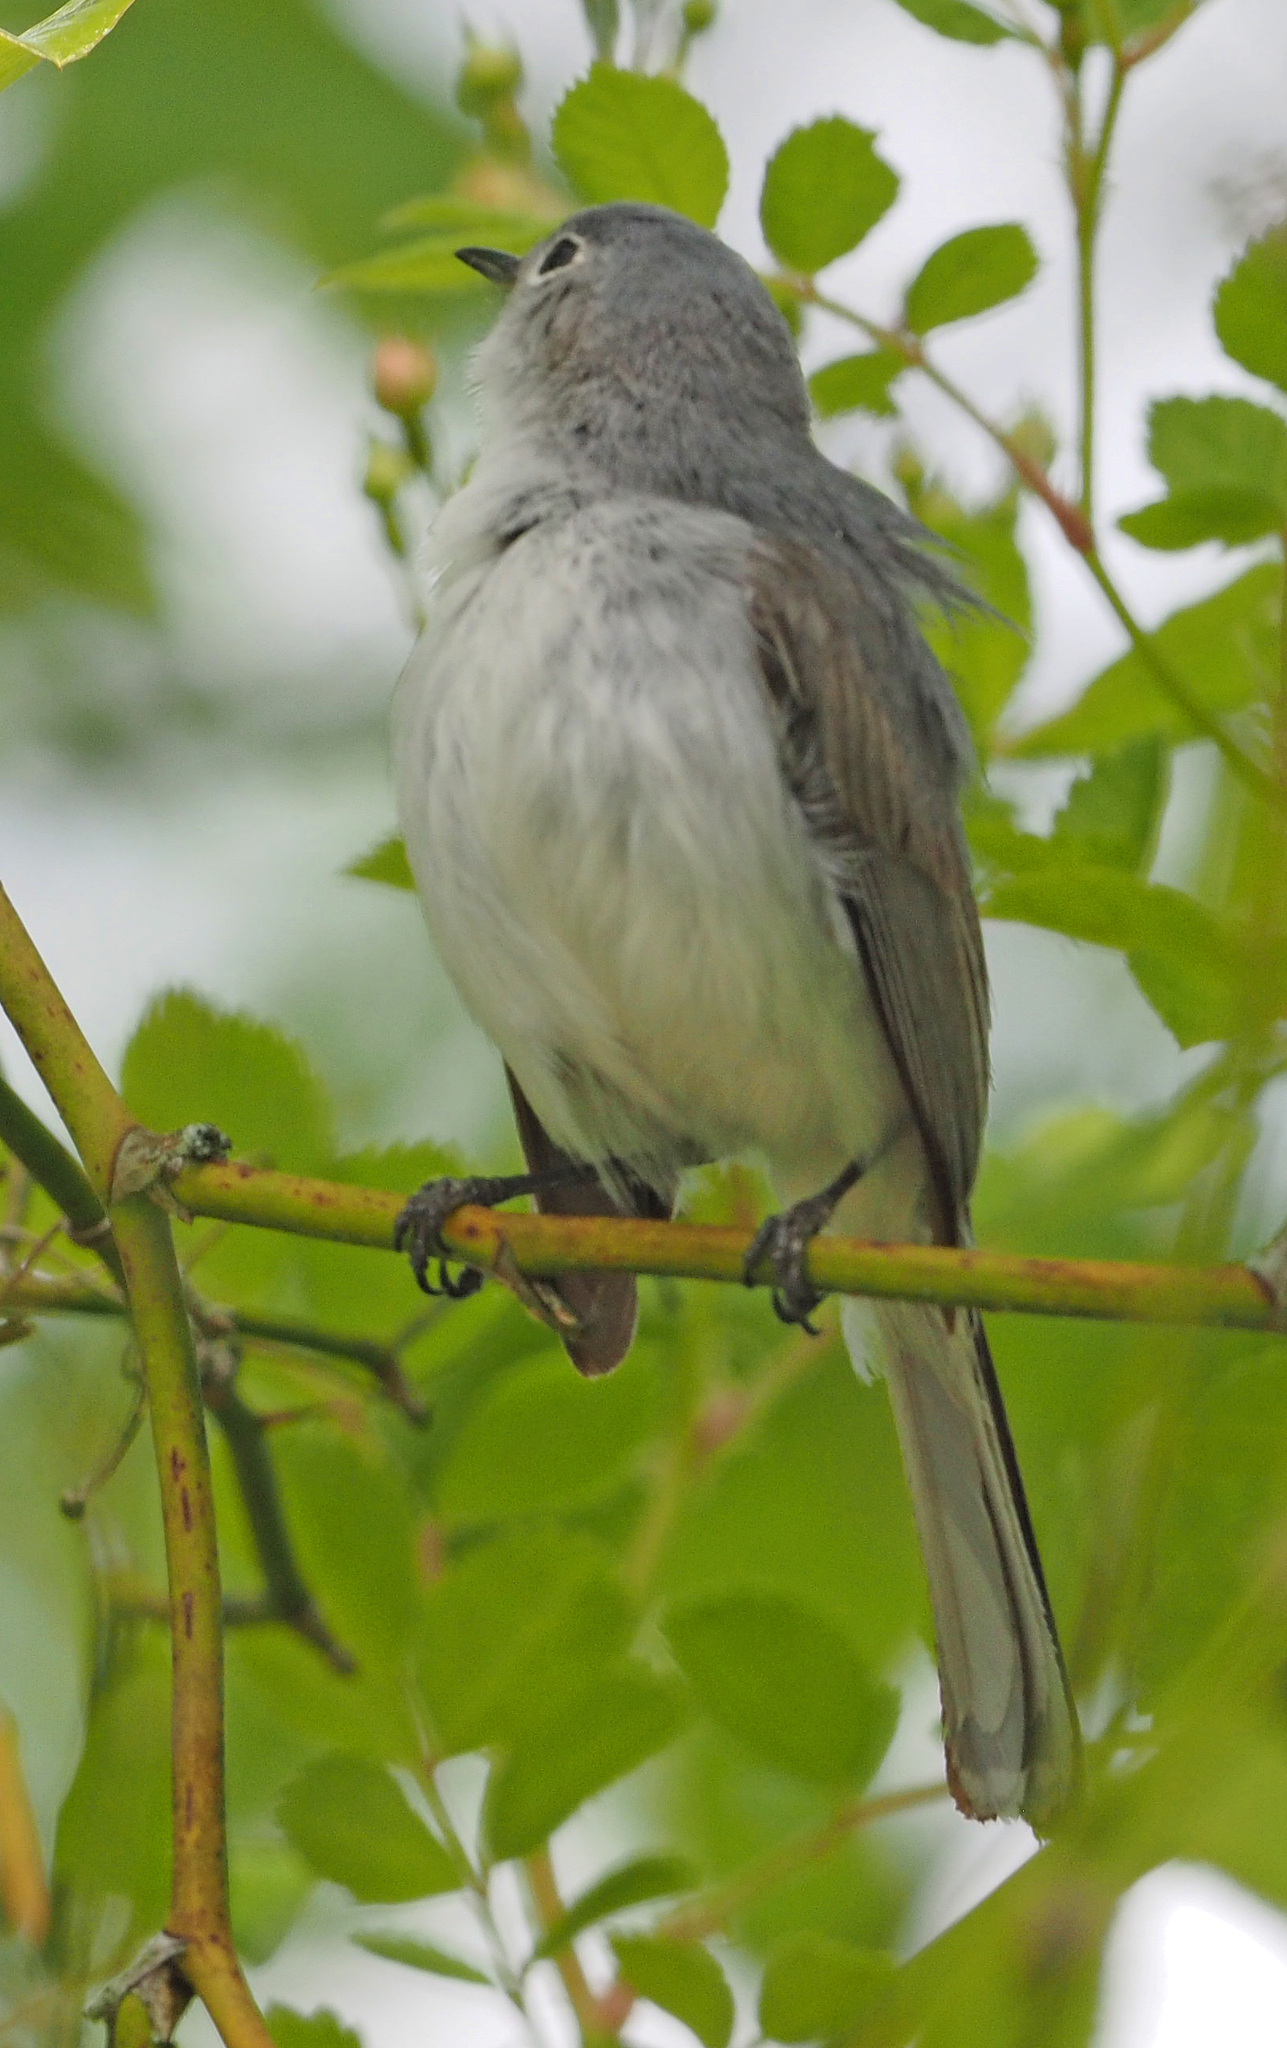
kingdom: Animalia
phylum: Chordata
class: Aves
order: Passeriformes
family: Polioptilidae
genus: Polioptila
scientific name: Polioptila caerulea
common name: Blue-gray gnatcatcher
